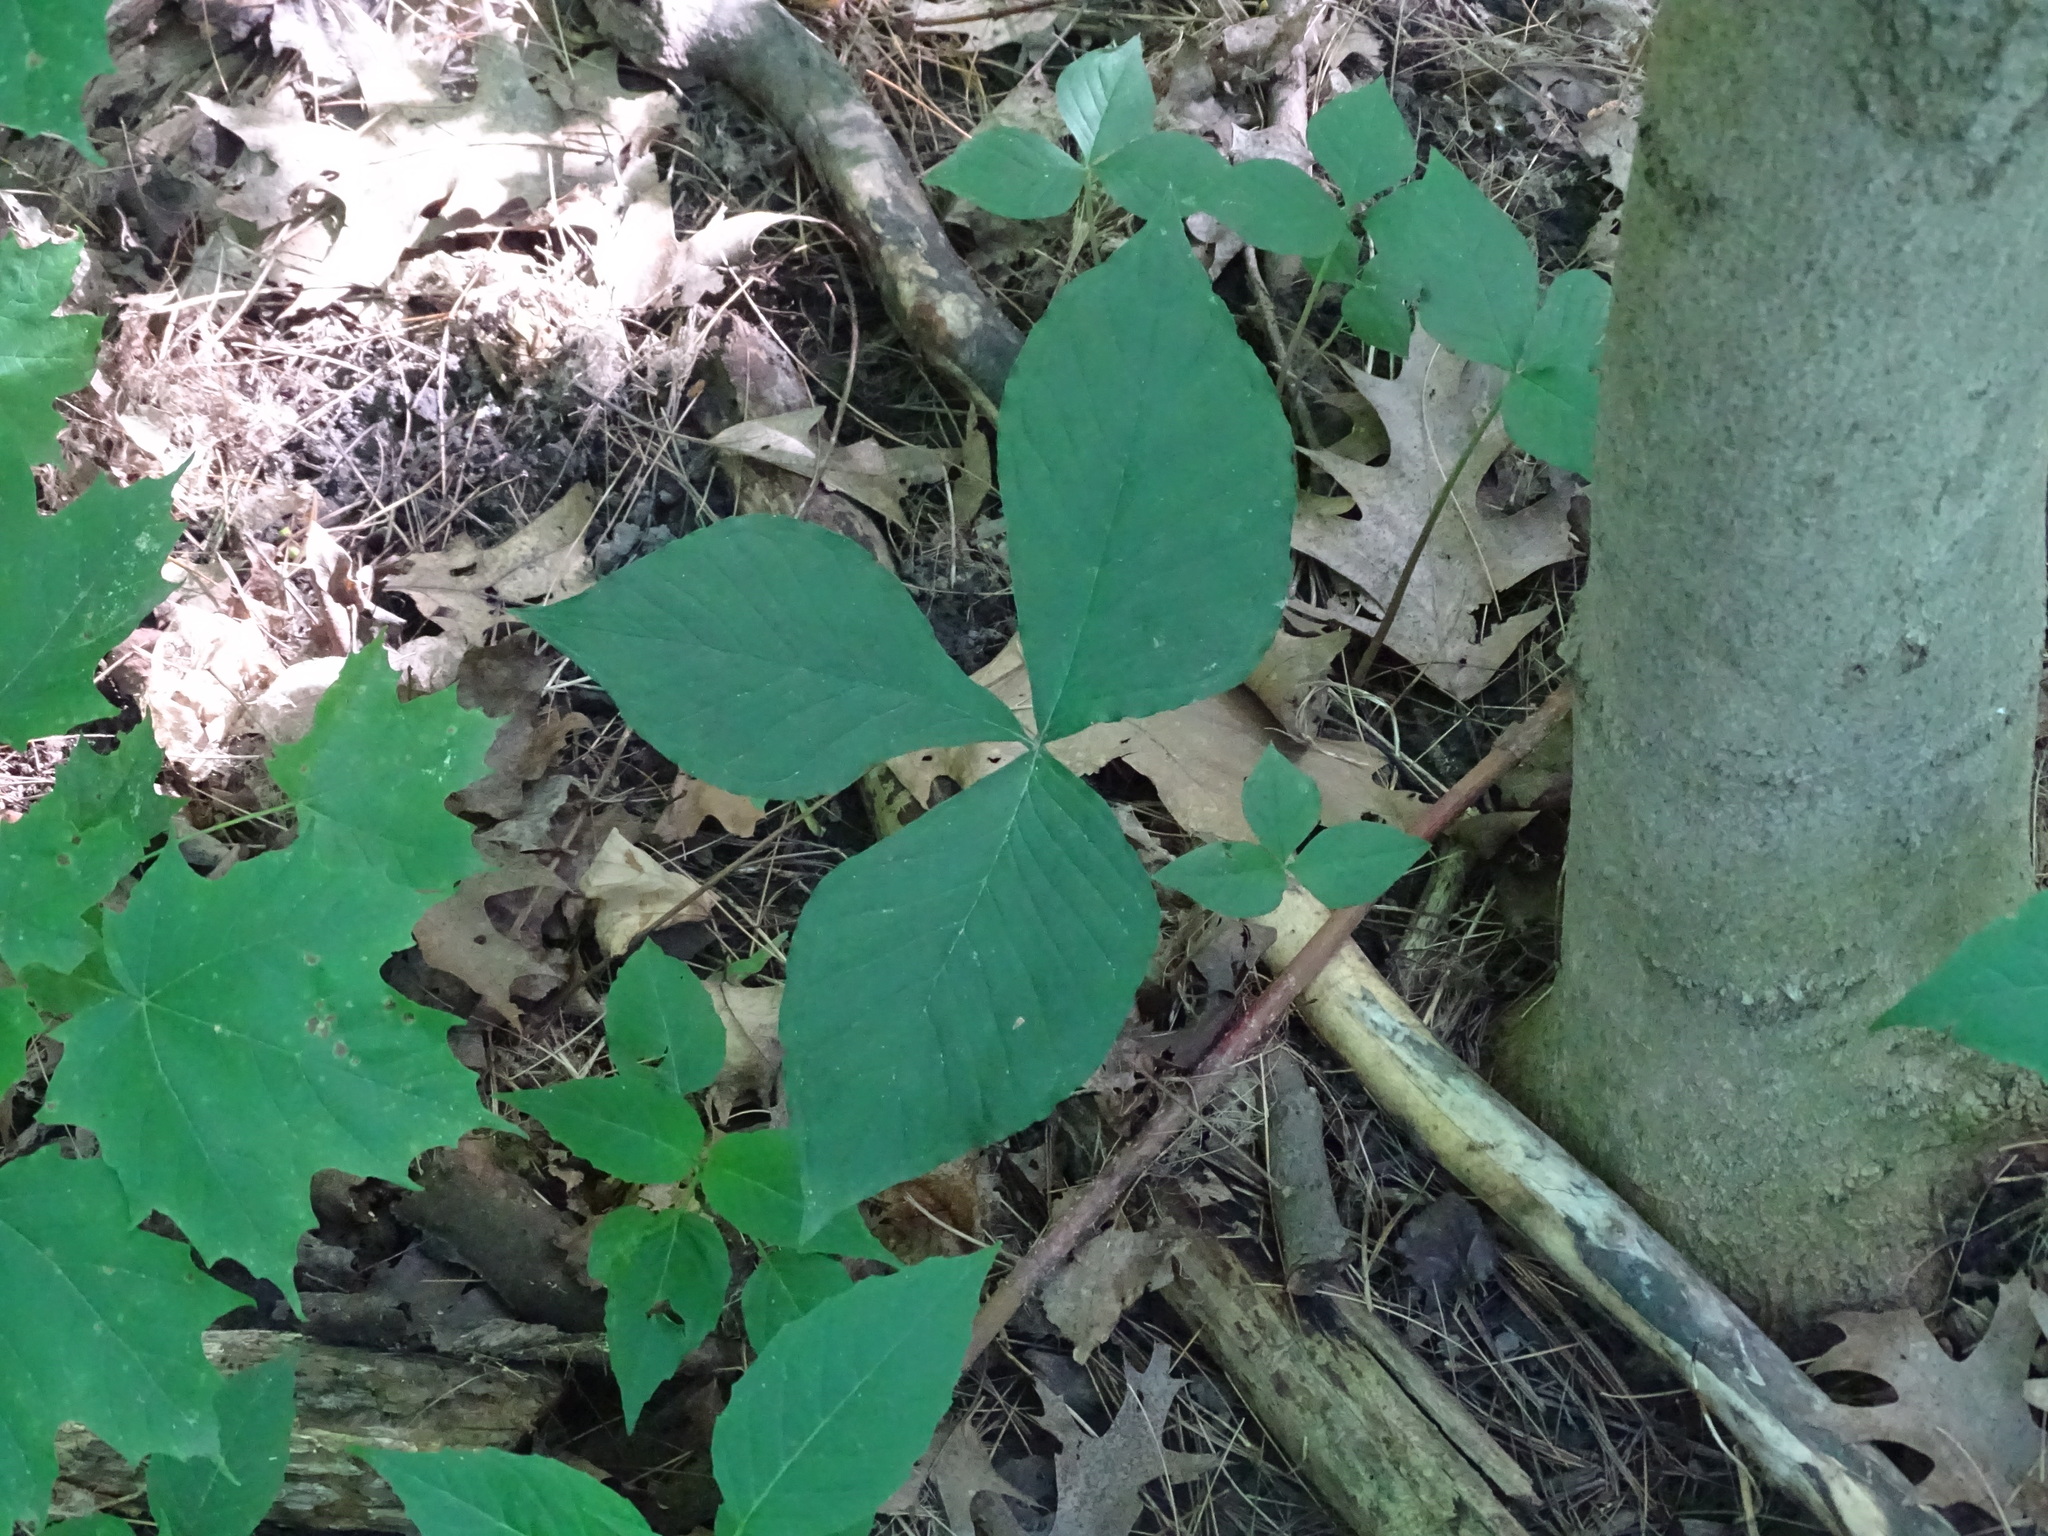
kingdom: Plantae
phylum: Tracheophyta
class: Liliopsida
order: Alismatales
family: Araceae
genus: Arisaema
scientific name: Arisaema triphyllum
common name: Jack-in-the-pulpit
